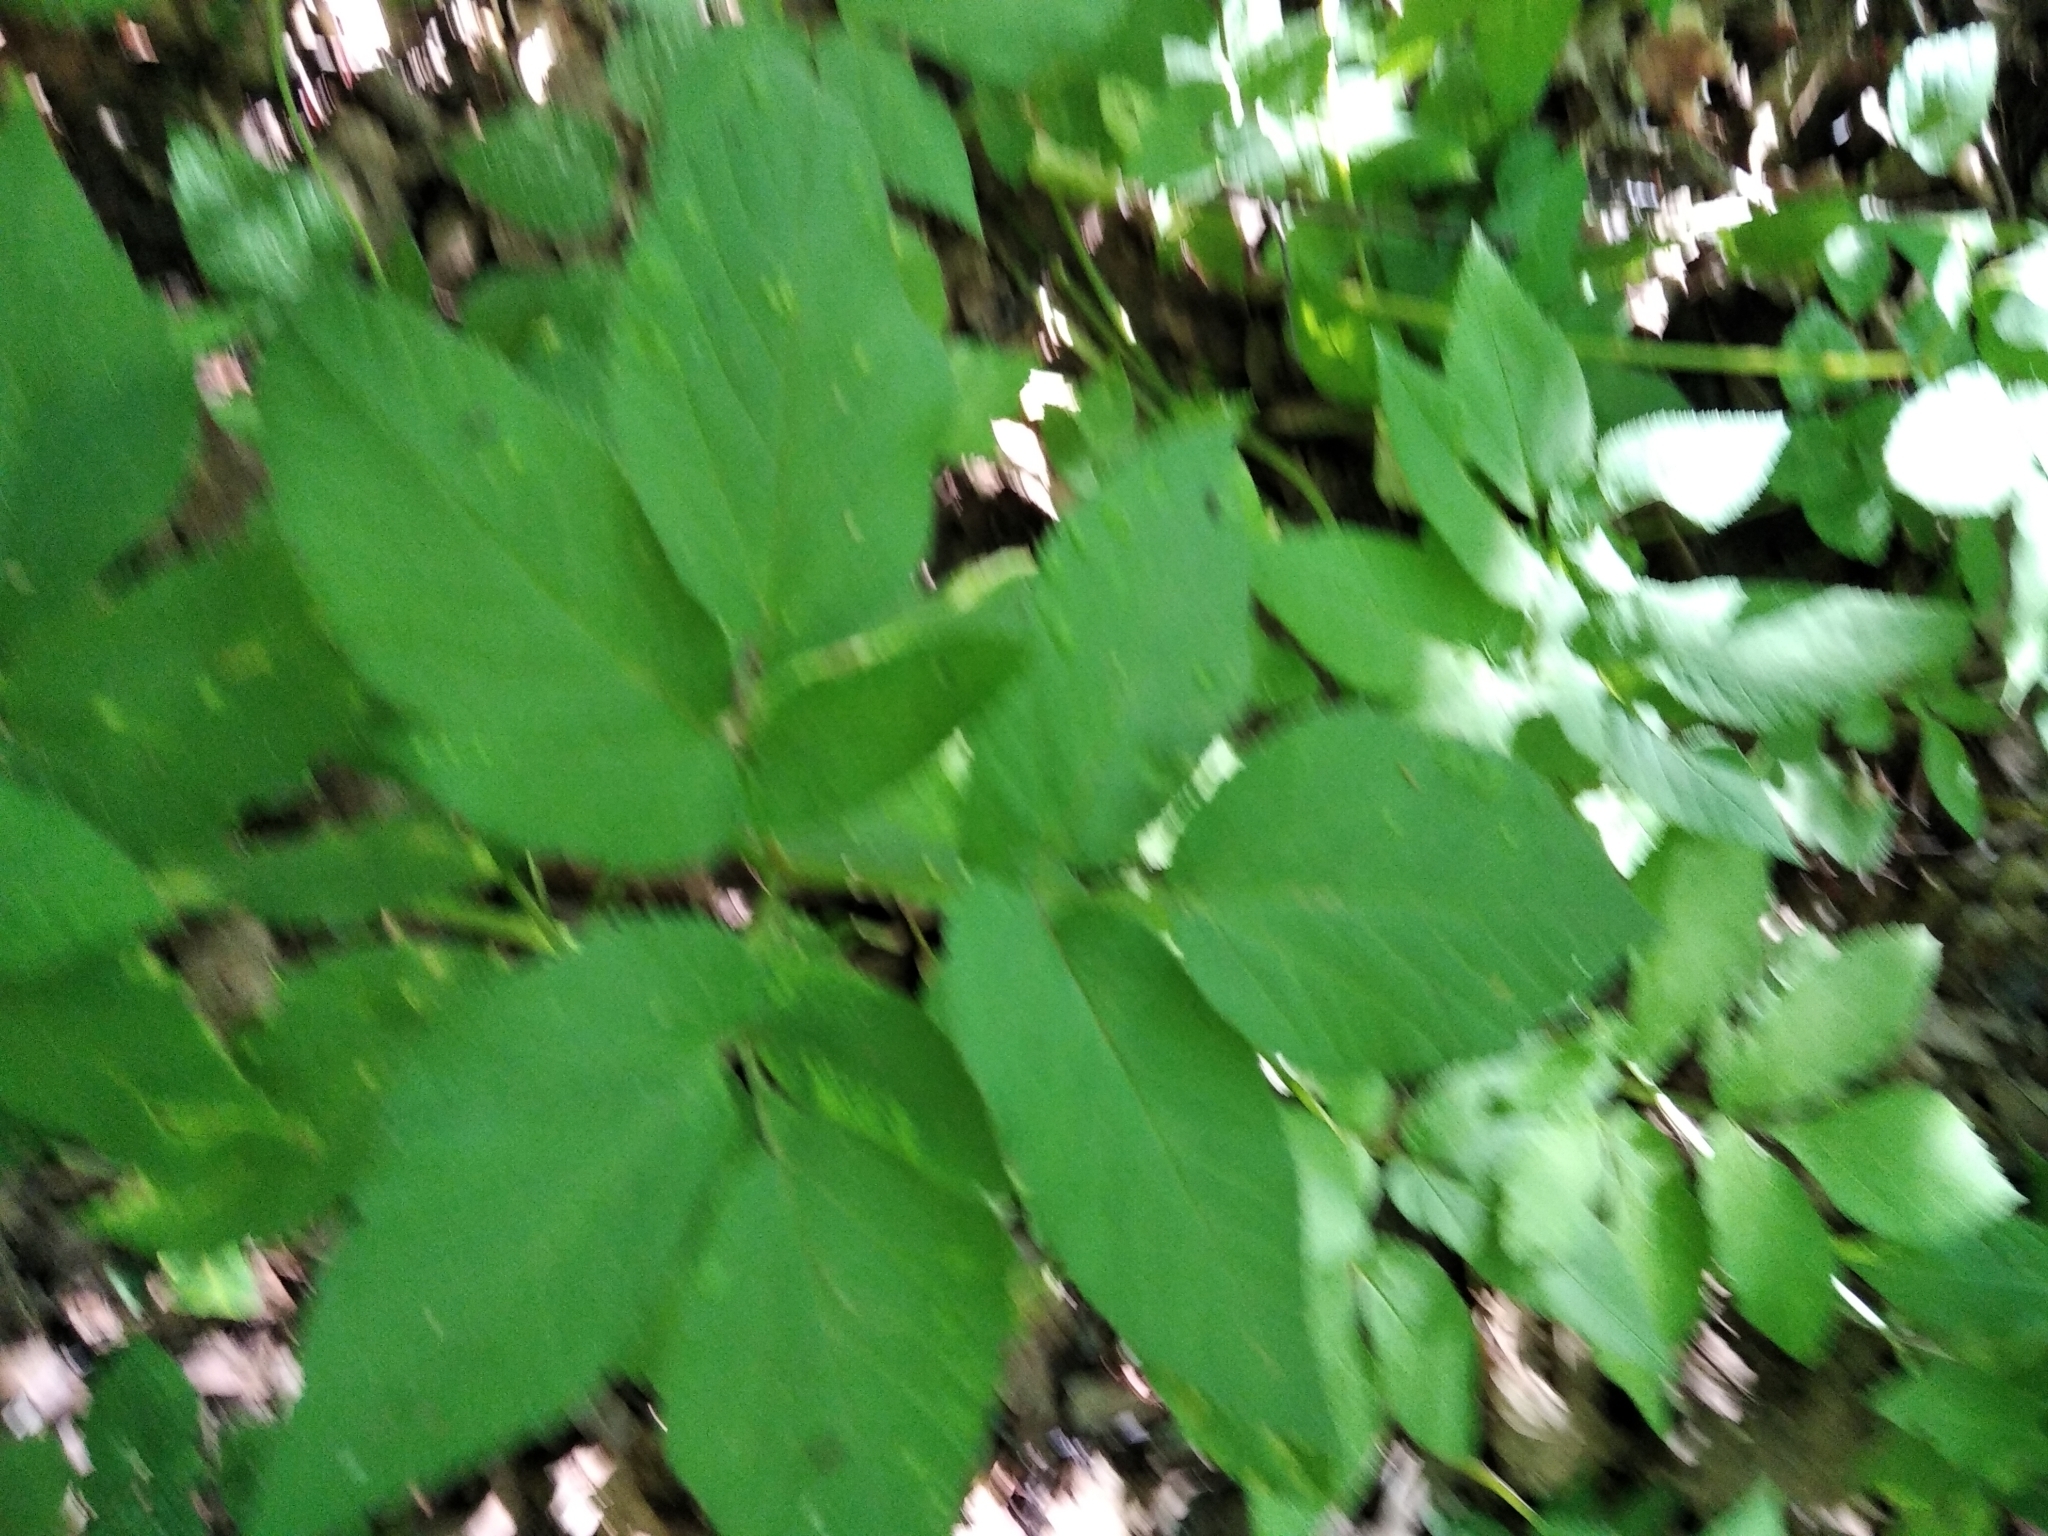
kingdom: Plantae
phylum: Tracheophyta
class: Magnoliopsida
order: Apiales
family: Apiaceae
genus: Aegopodium
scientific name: Aegopodium podagraria
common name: Ground-elder
